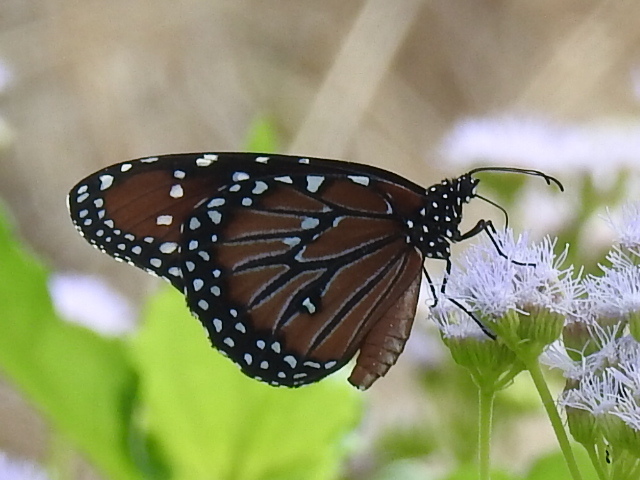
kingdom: Animalia
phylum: Arthropoda
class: Insecta
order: Lepidoptera
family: Nymphalidae
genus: Danaus
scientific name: Danaus gilippus
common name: Queen
